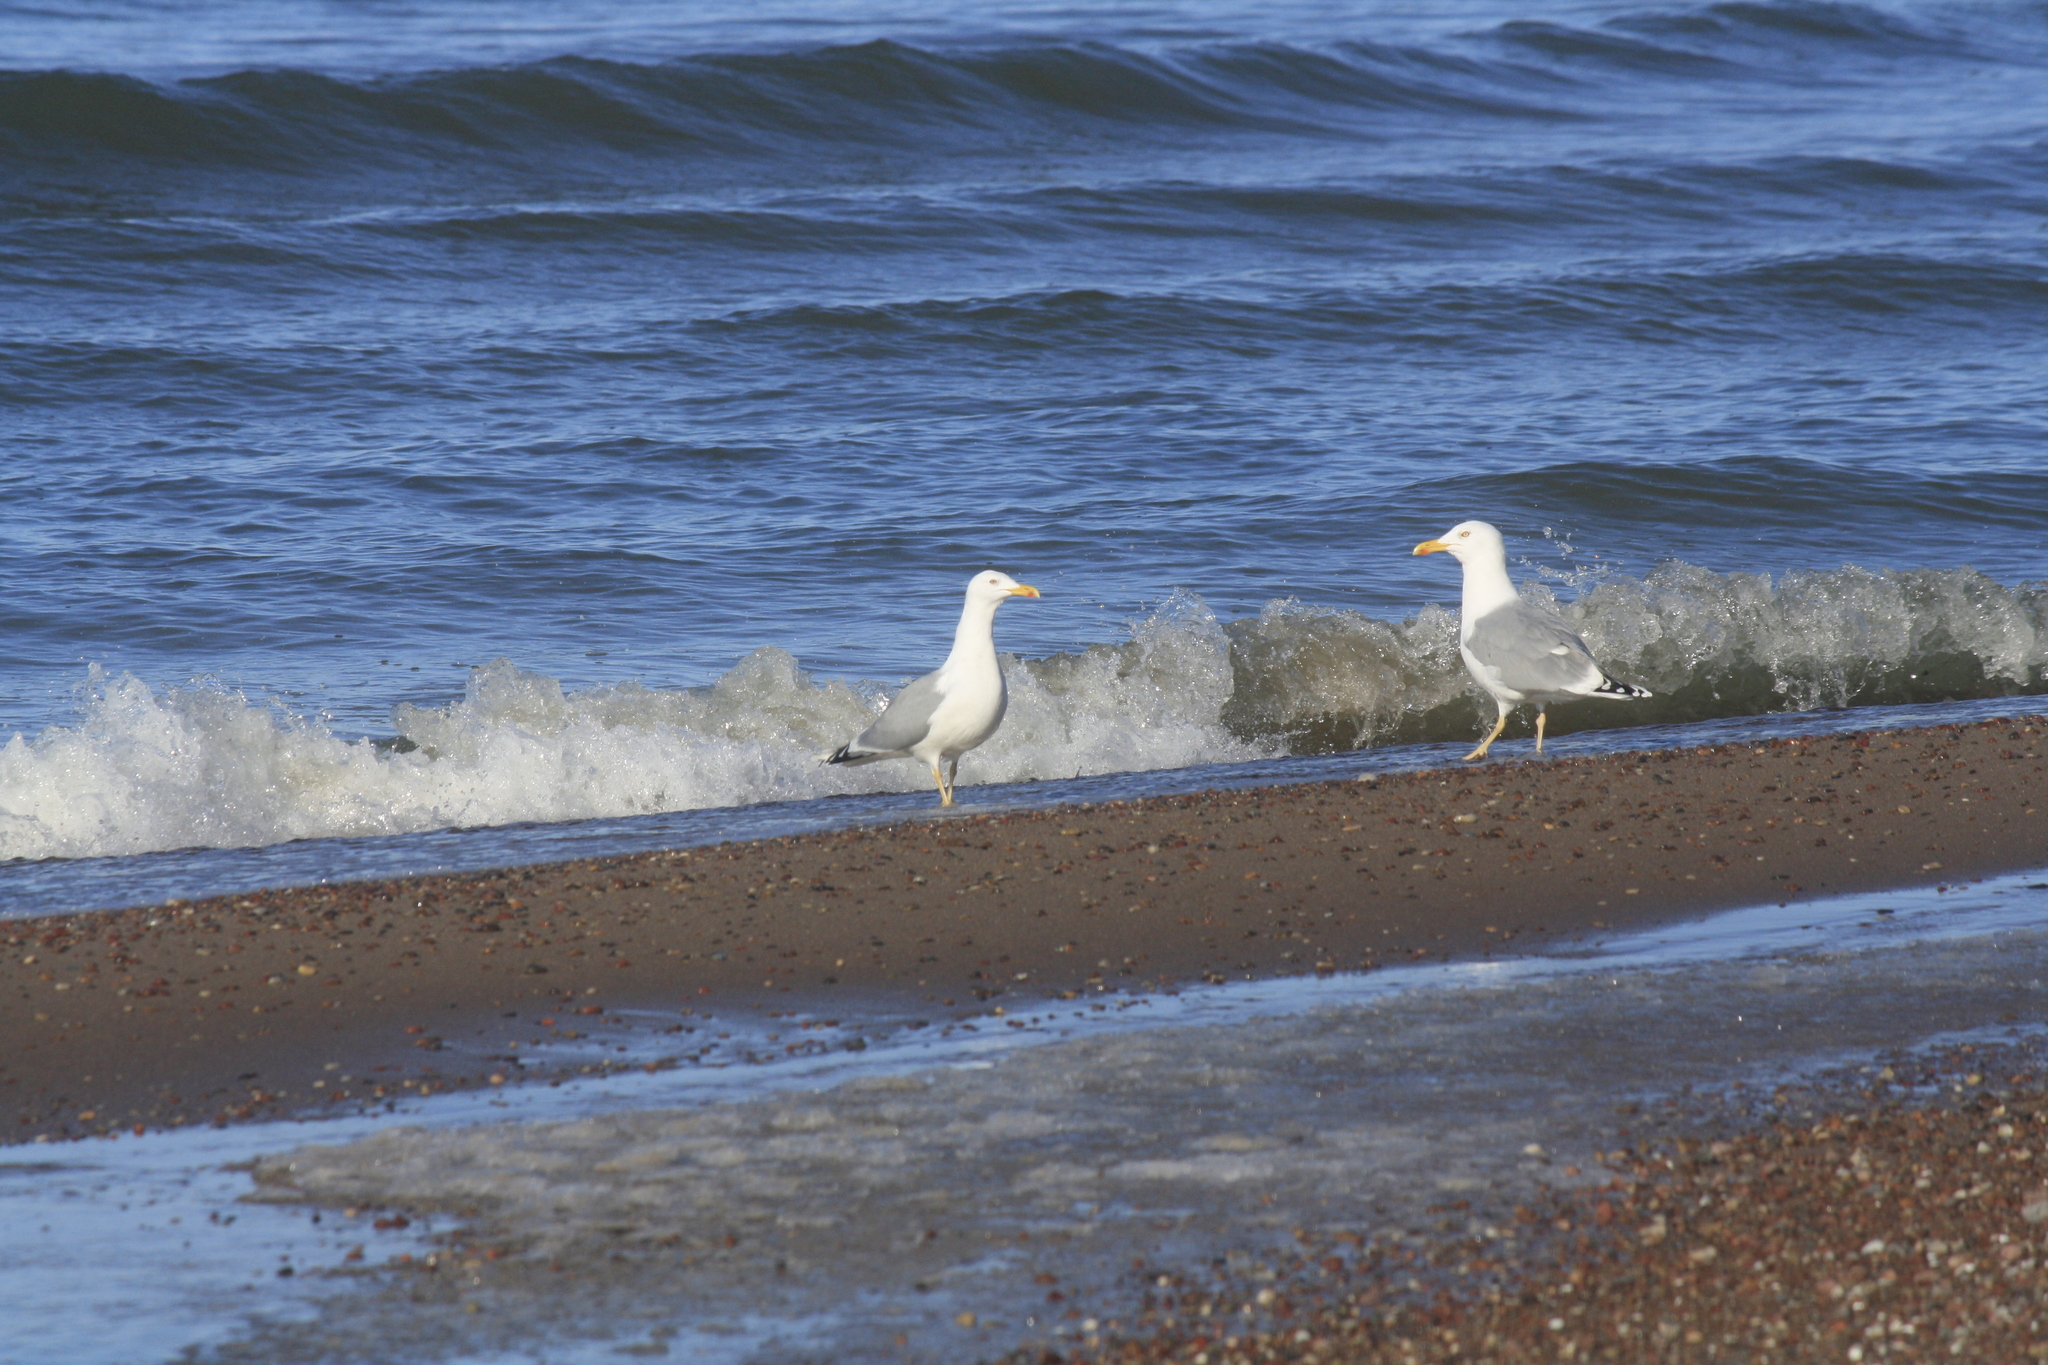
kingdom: Animalia
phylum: Chordata
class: Aves
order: Charadriiformes
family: Laridae
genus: Larus
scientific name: Larus argentatus
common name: Herring gull
